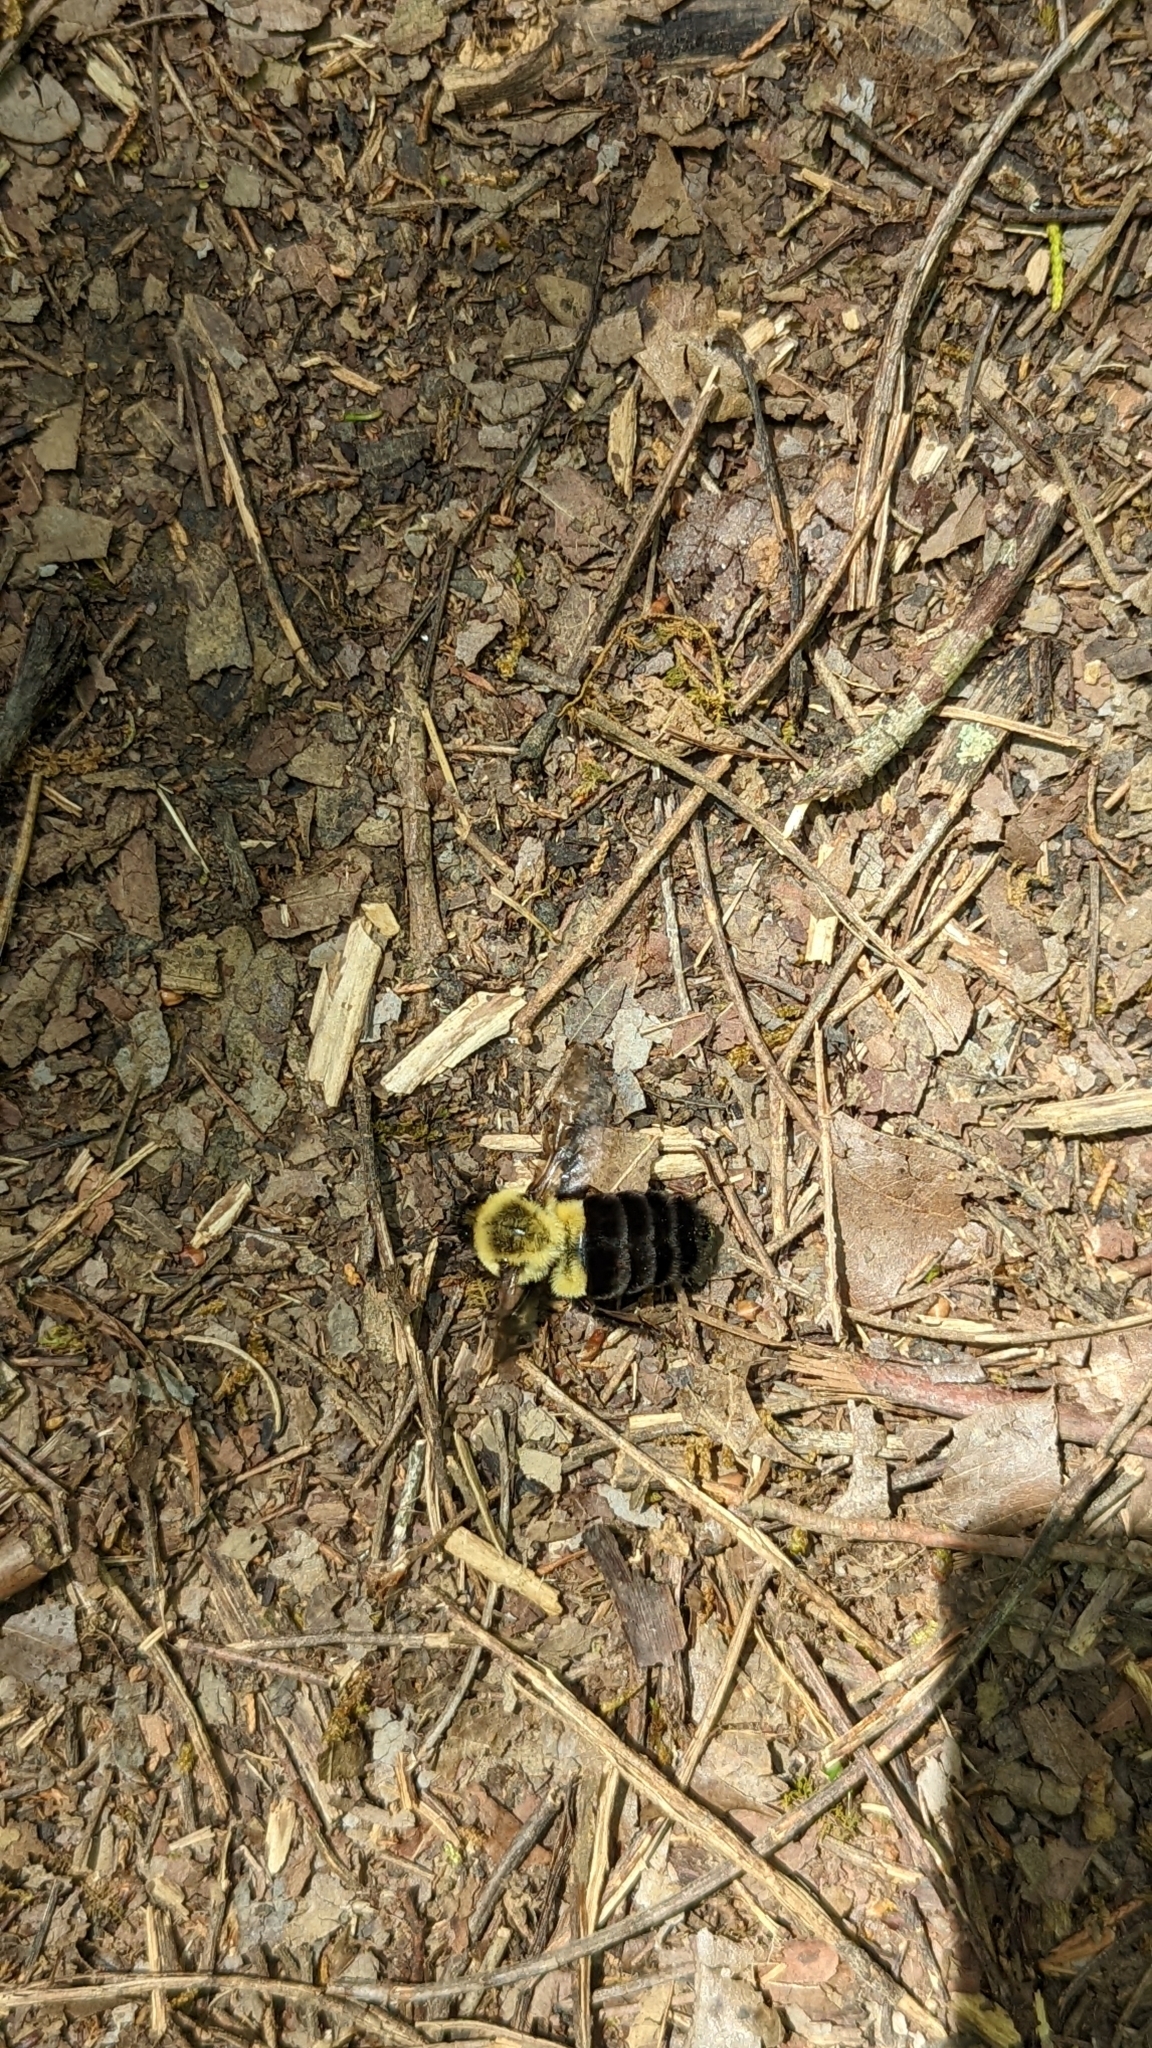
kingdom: Animalia
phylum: Arthropoda
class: Insecta
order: Hymenoptera
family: Apidae
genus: Bombus
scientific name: Bombus impatiens
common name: Common eastern bumble bee
